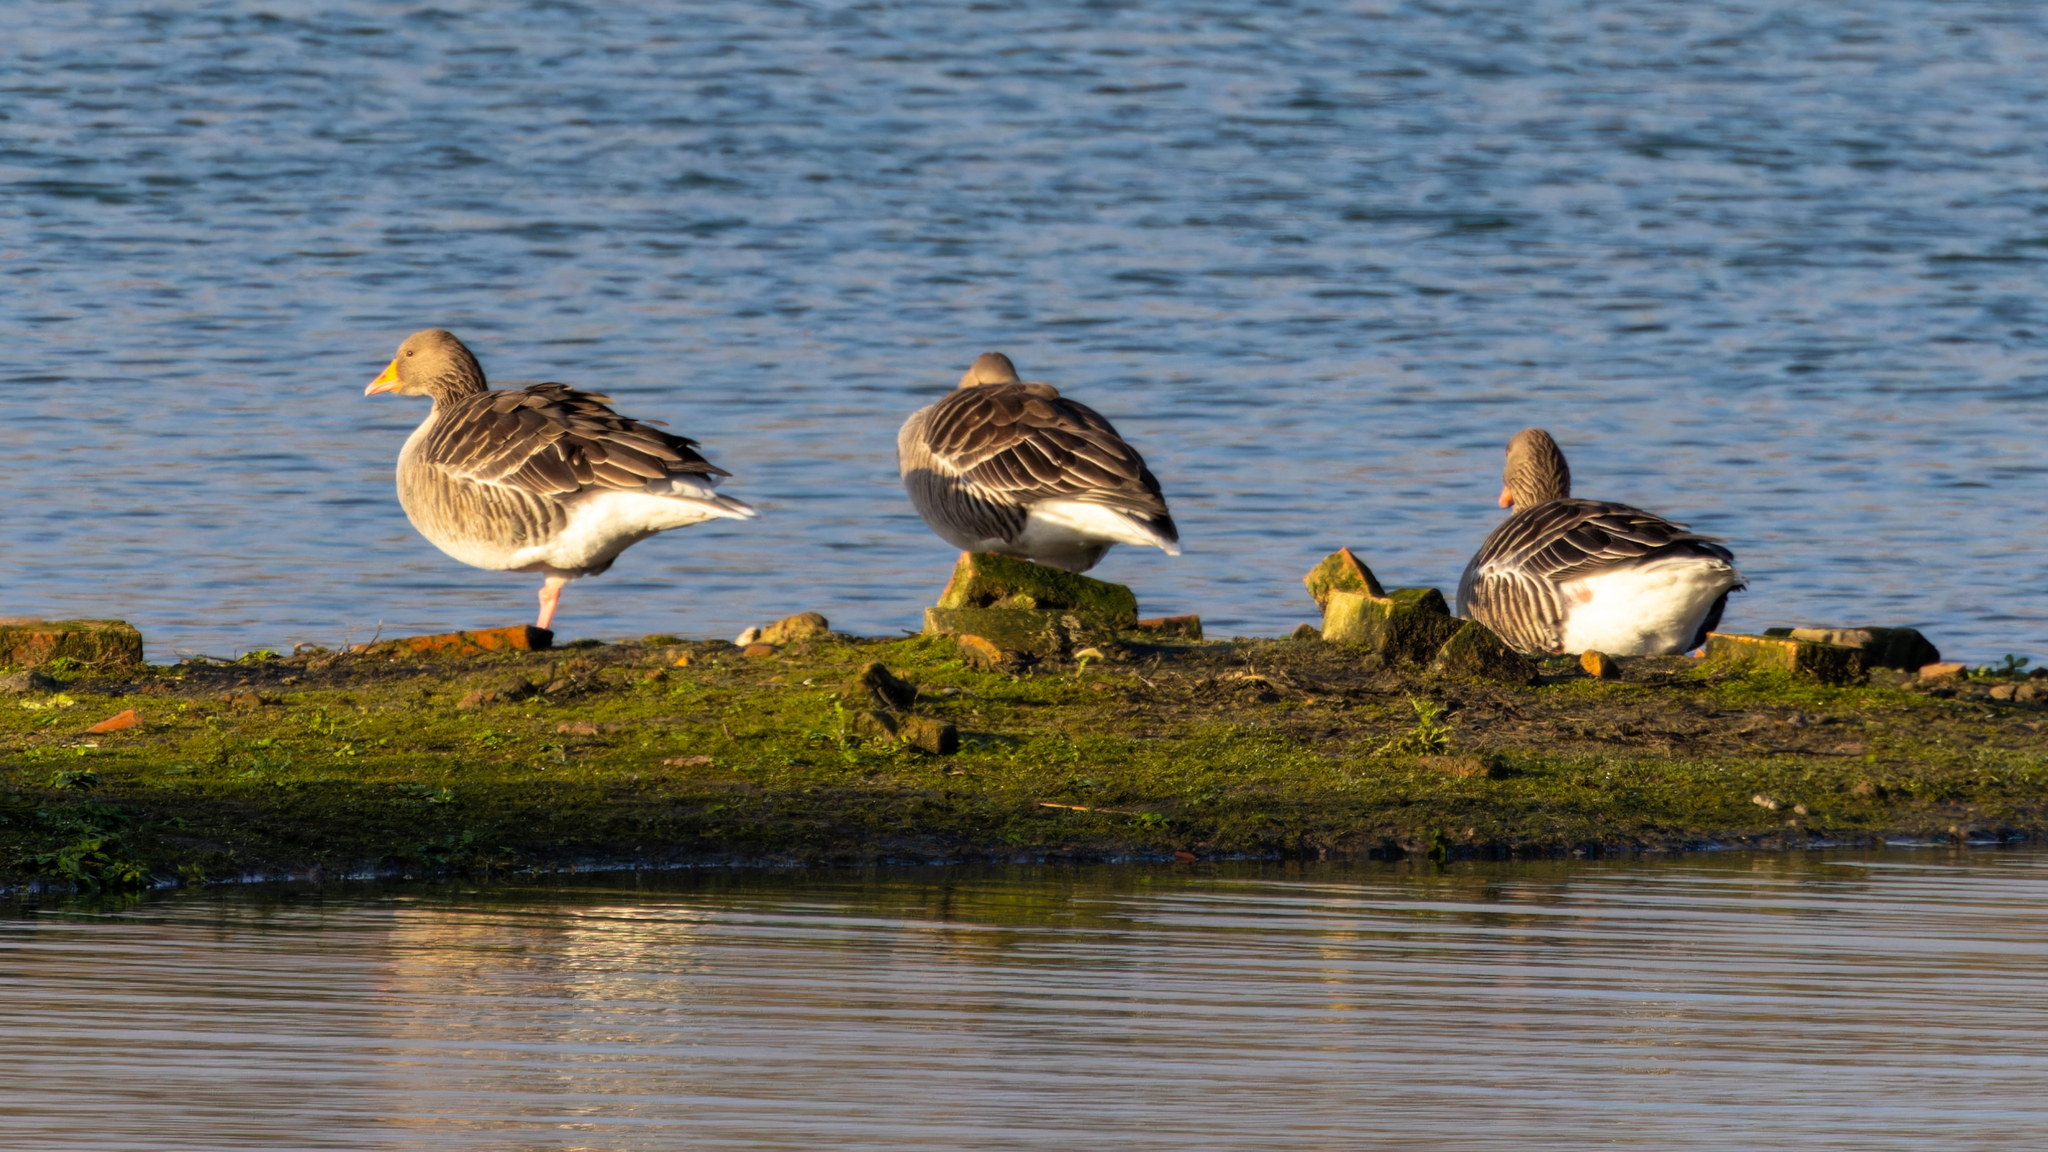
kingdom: Animalia
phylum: Chordata
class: Aves
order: Anseriformes
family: Anatidae
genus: Anser
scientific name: Anser anser
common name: Greylag goose
